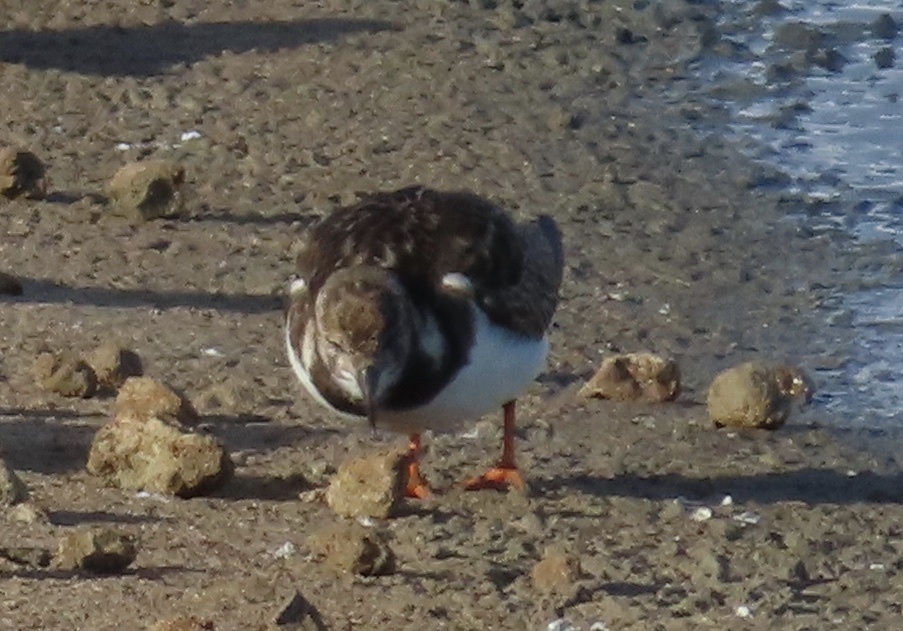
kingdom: Animalia
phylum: Chordata
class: Aves
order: Charadriiformes
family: Scolopacidae
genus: Arenaria
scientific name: Arenaria interpres
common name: Ruddy turnstone
